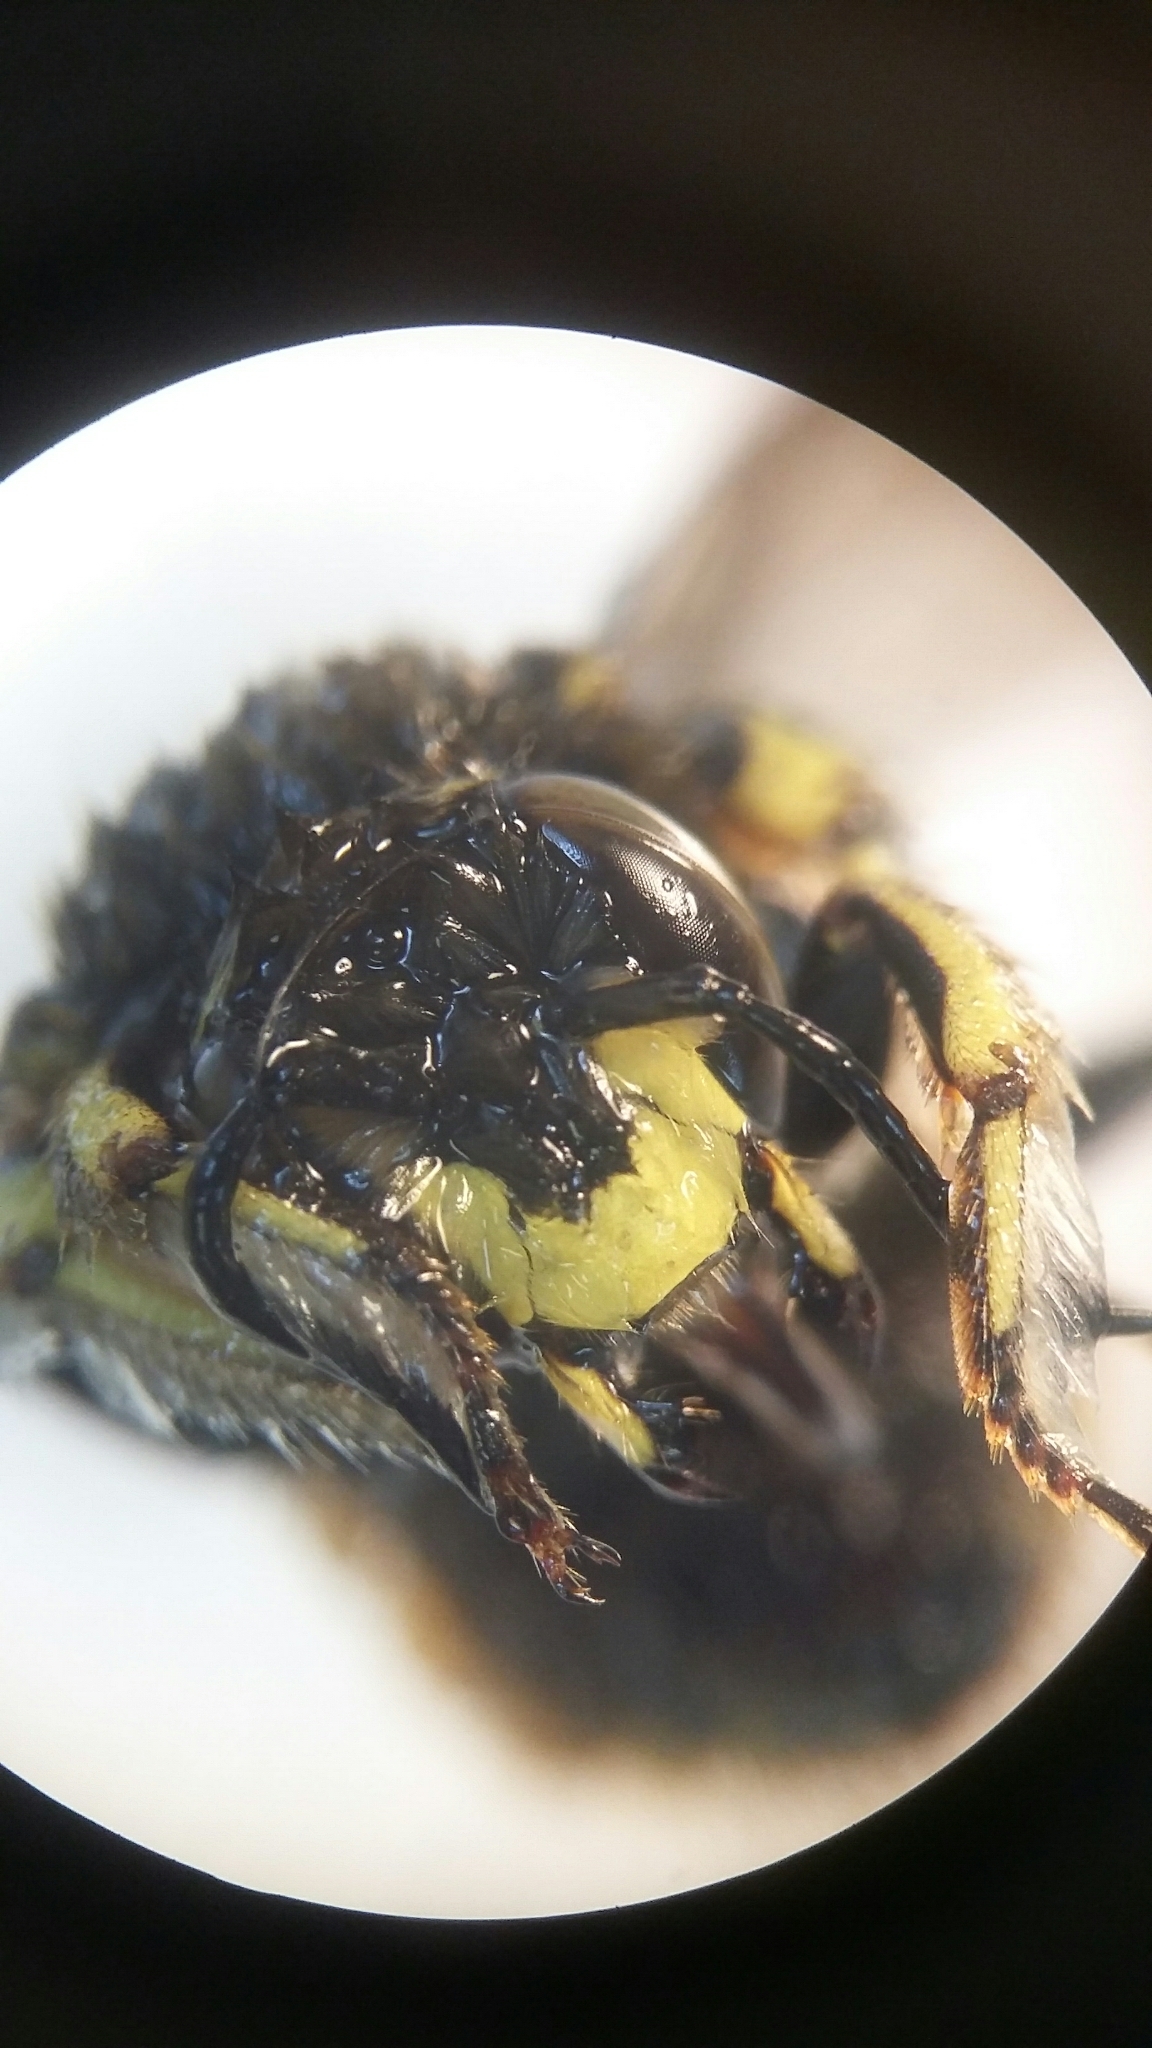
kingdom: Animalia
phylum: Arthropoda
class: Insecta
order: Hymenoptera
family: Megachilidae
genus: Anthidium
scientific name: Anthidium manicatum
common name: Wool carder bee
